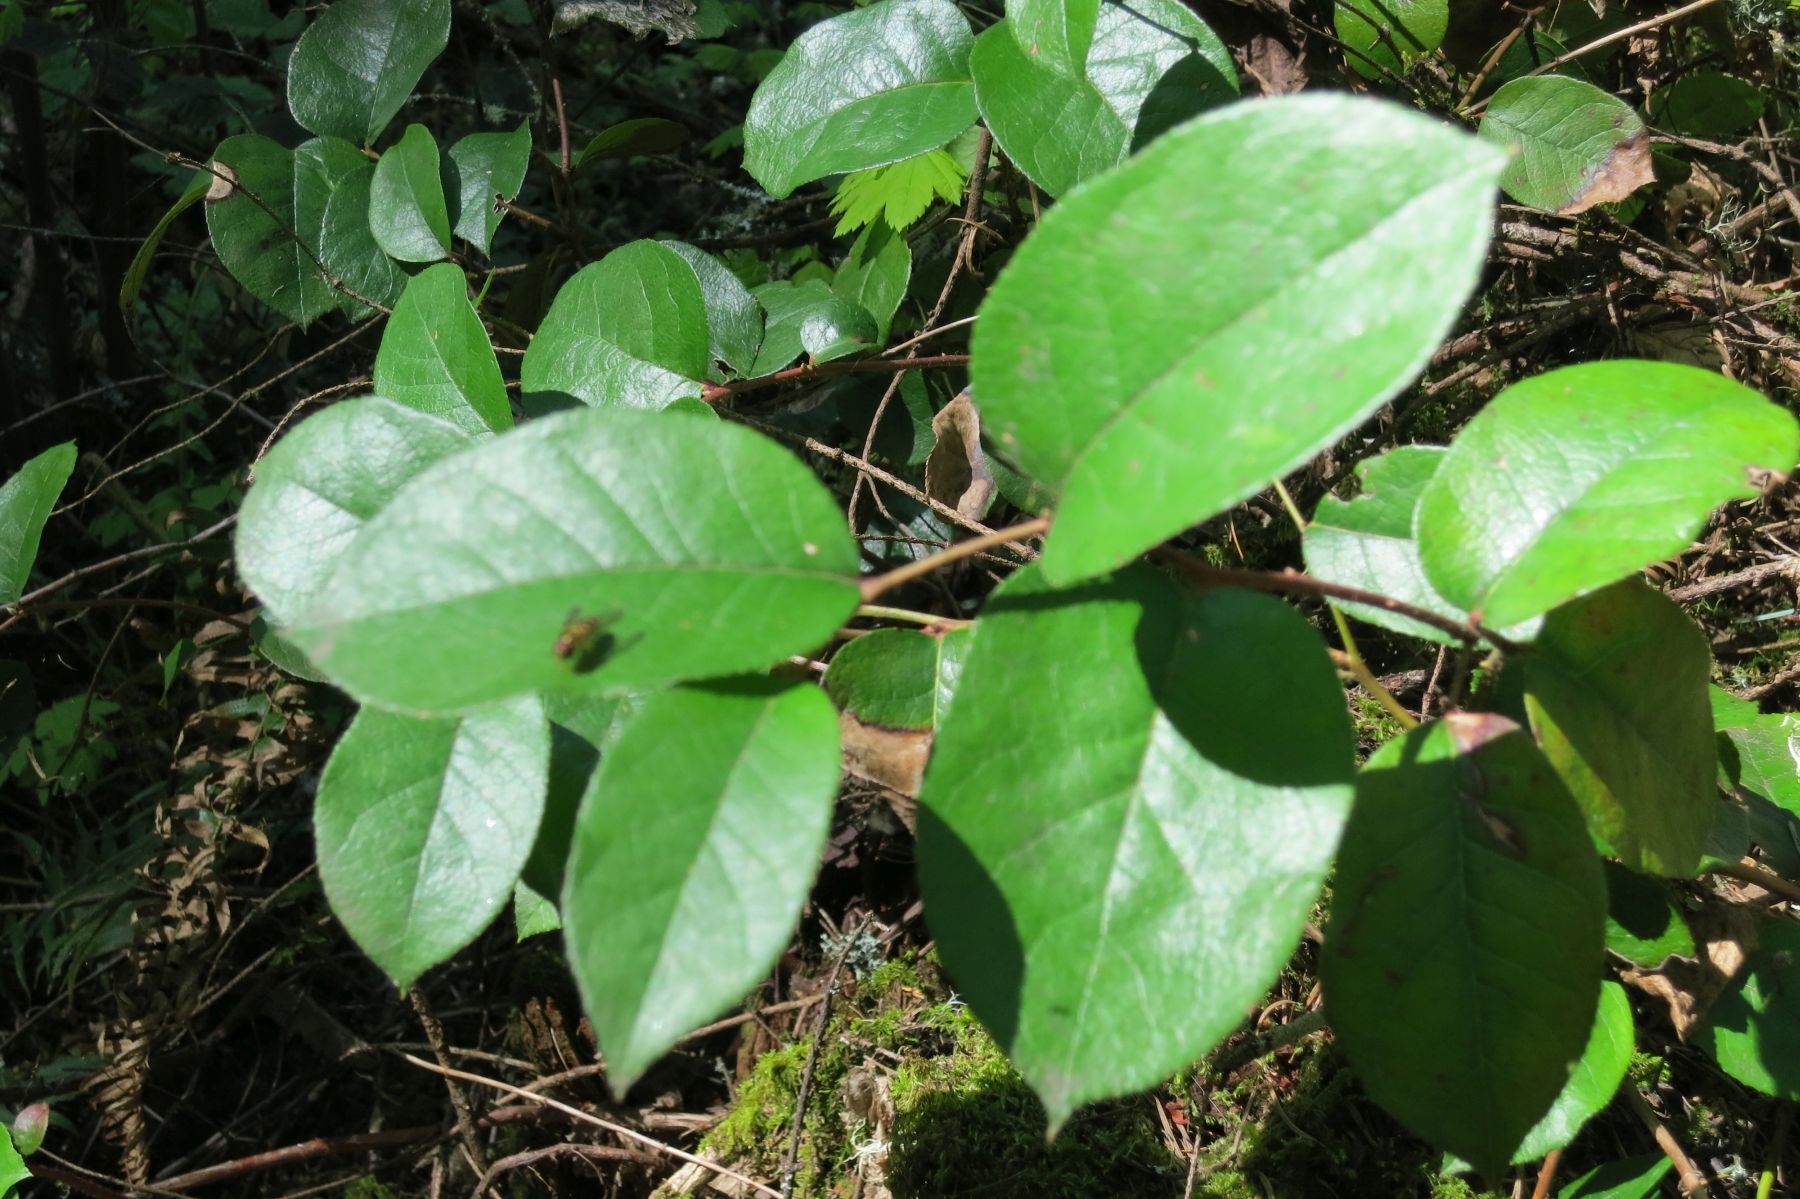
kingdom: Plantae
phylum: Tracheophyta
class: Magnoliopsida
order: Ericales
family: Ericaceae
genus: Gaultheria
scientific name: Gaultheria shallon
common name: Shallon
